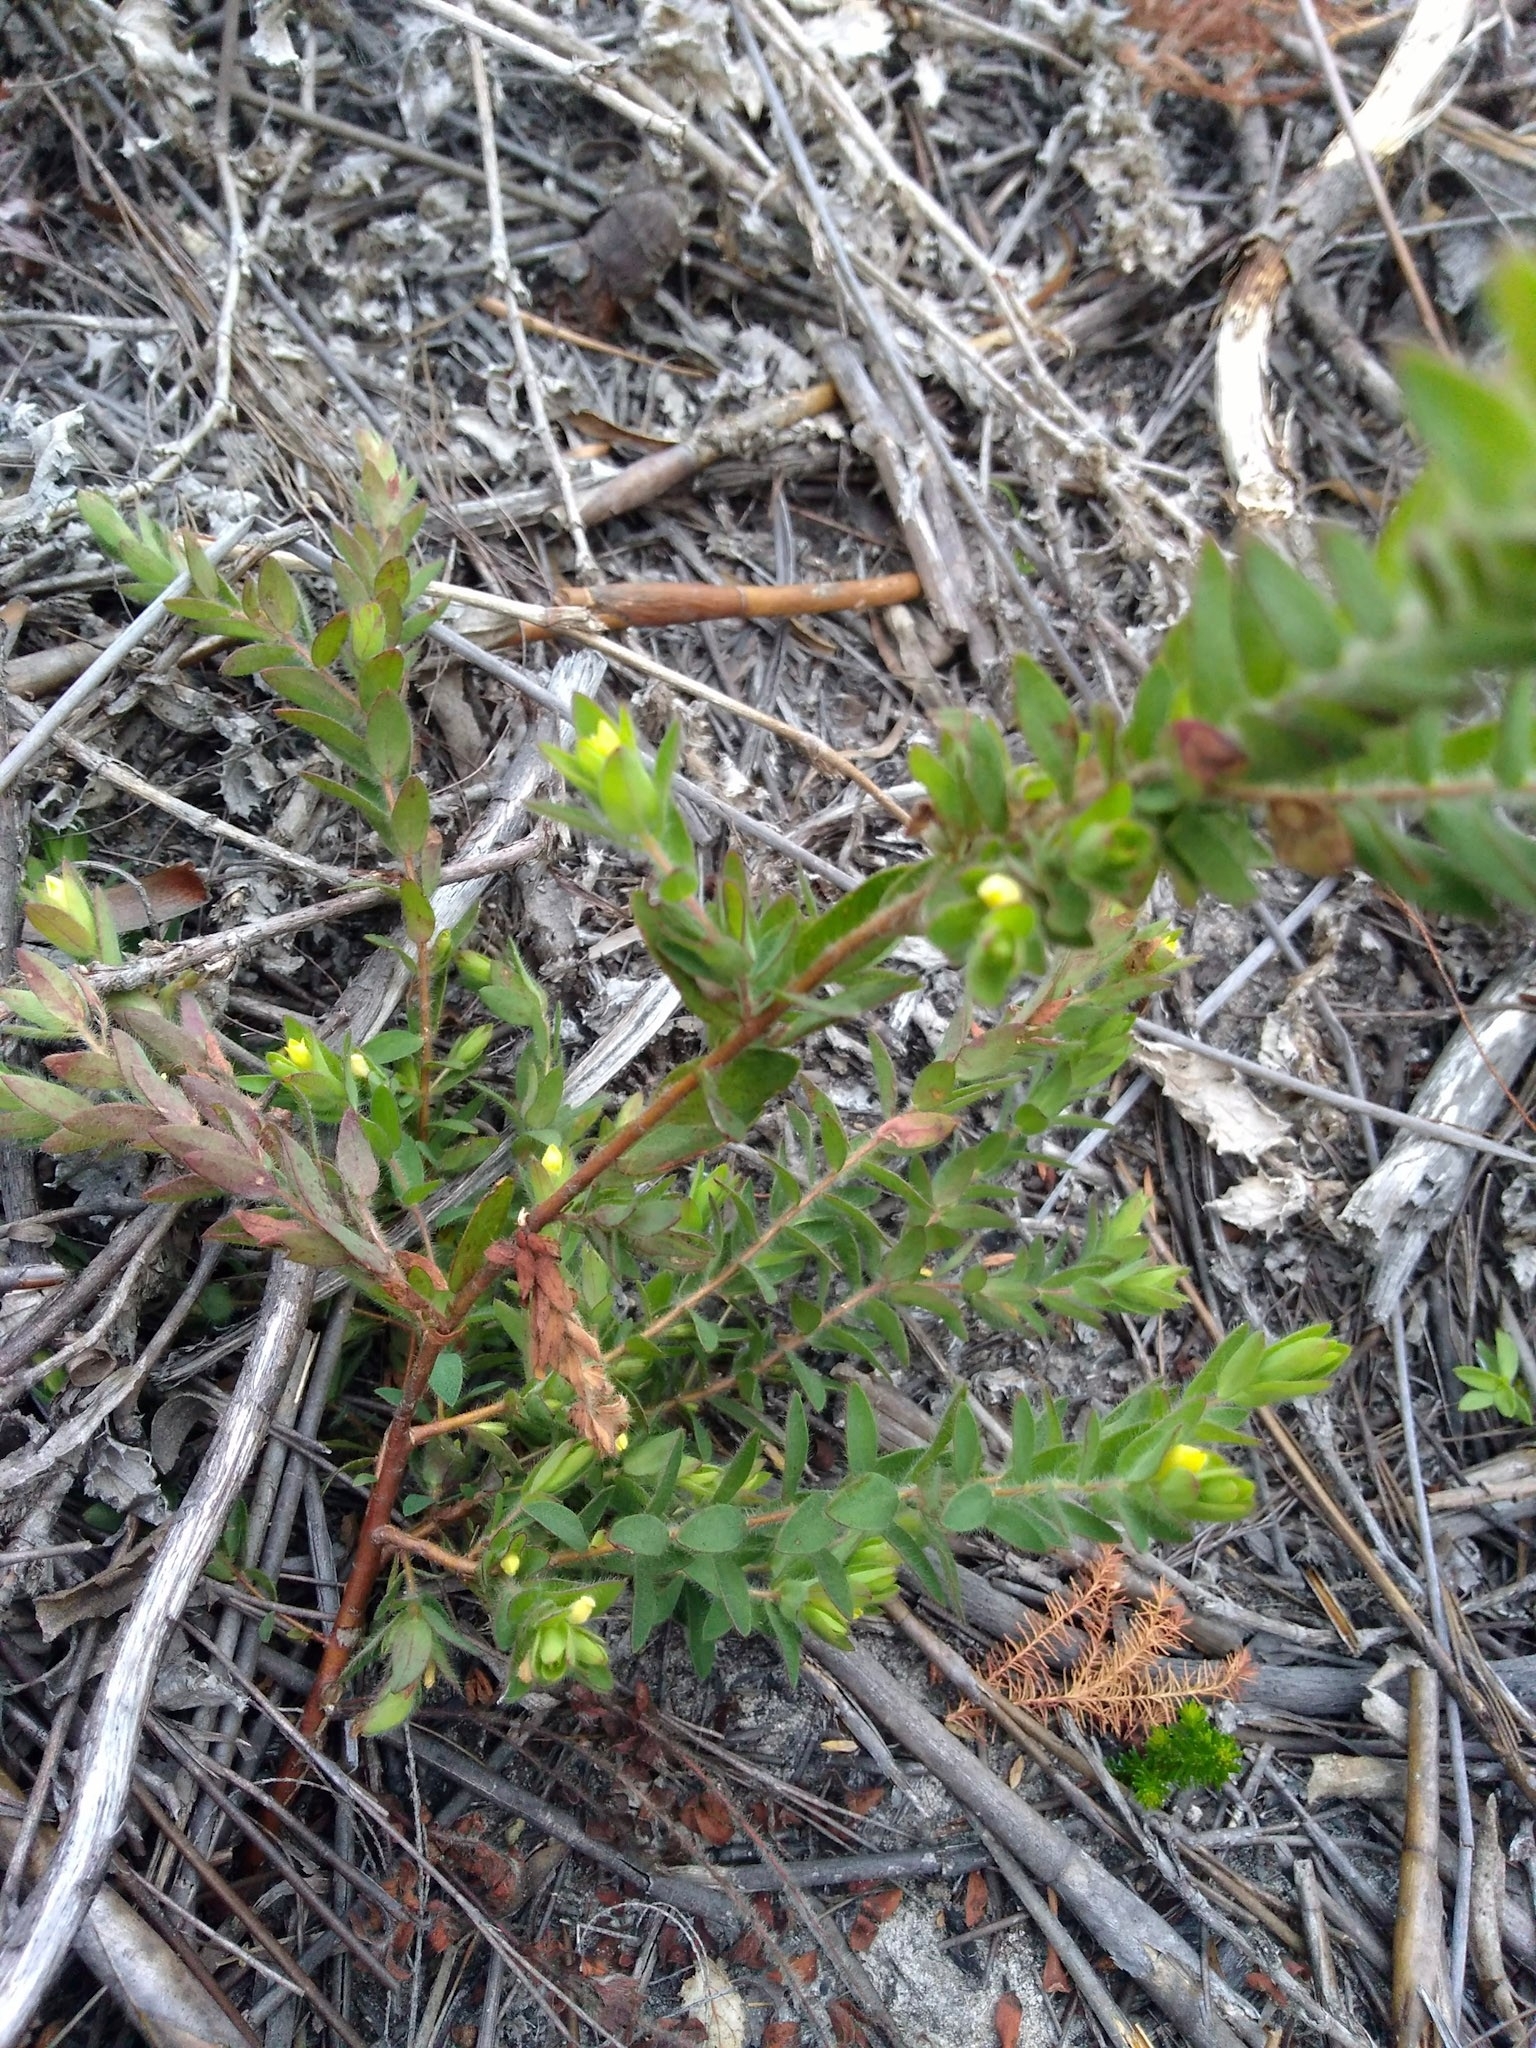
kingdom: Plantae
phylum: Tracheophyta
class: Magnoliopsida
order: Malvales
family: Thymelaeaceae
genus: Gnidia
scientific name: Gnidia humilis
